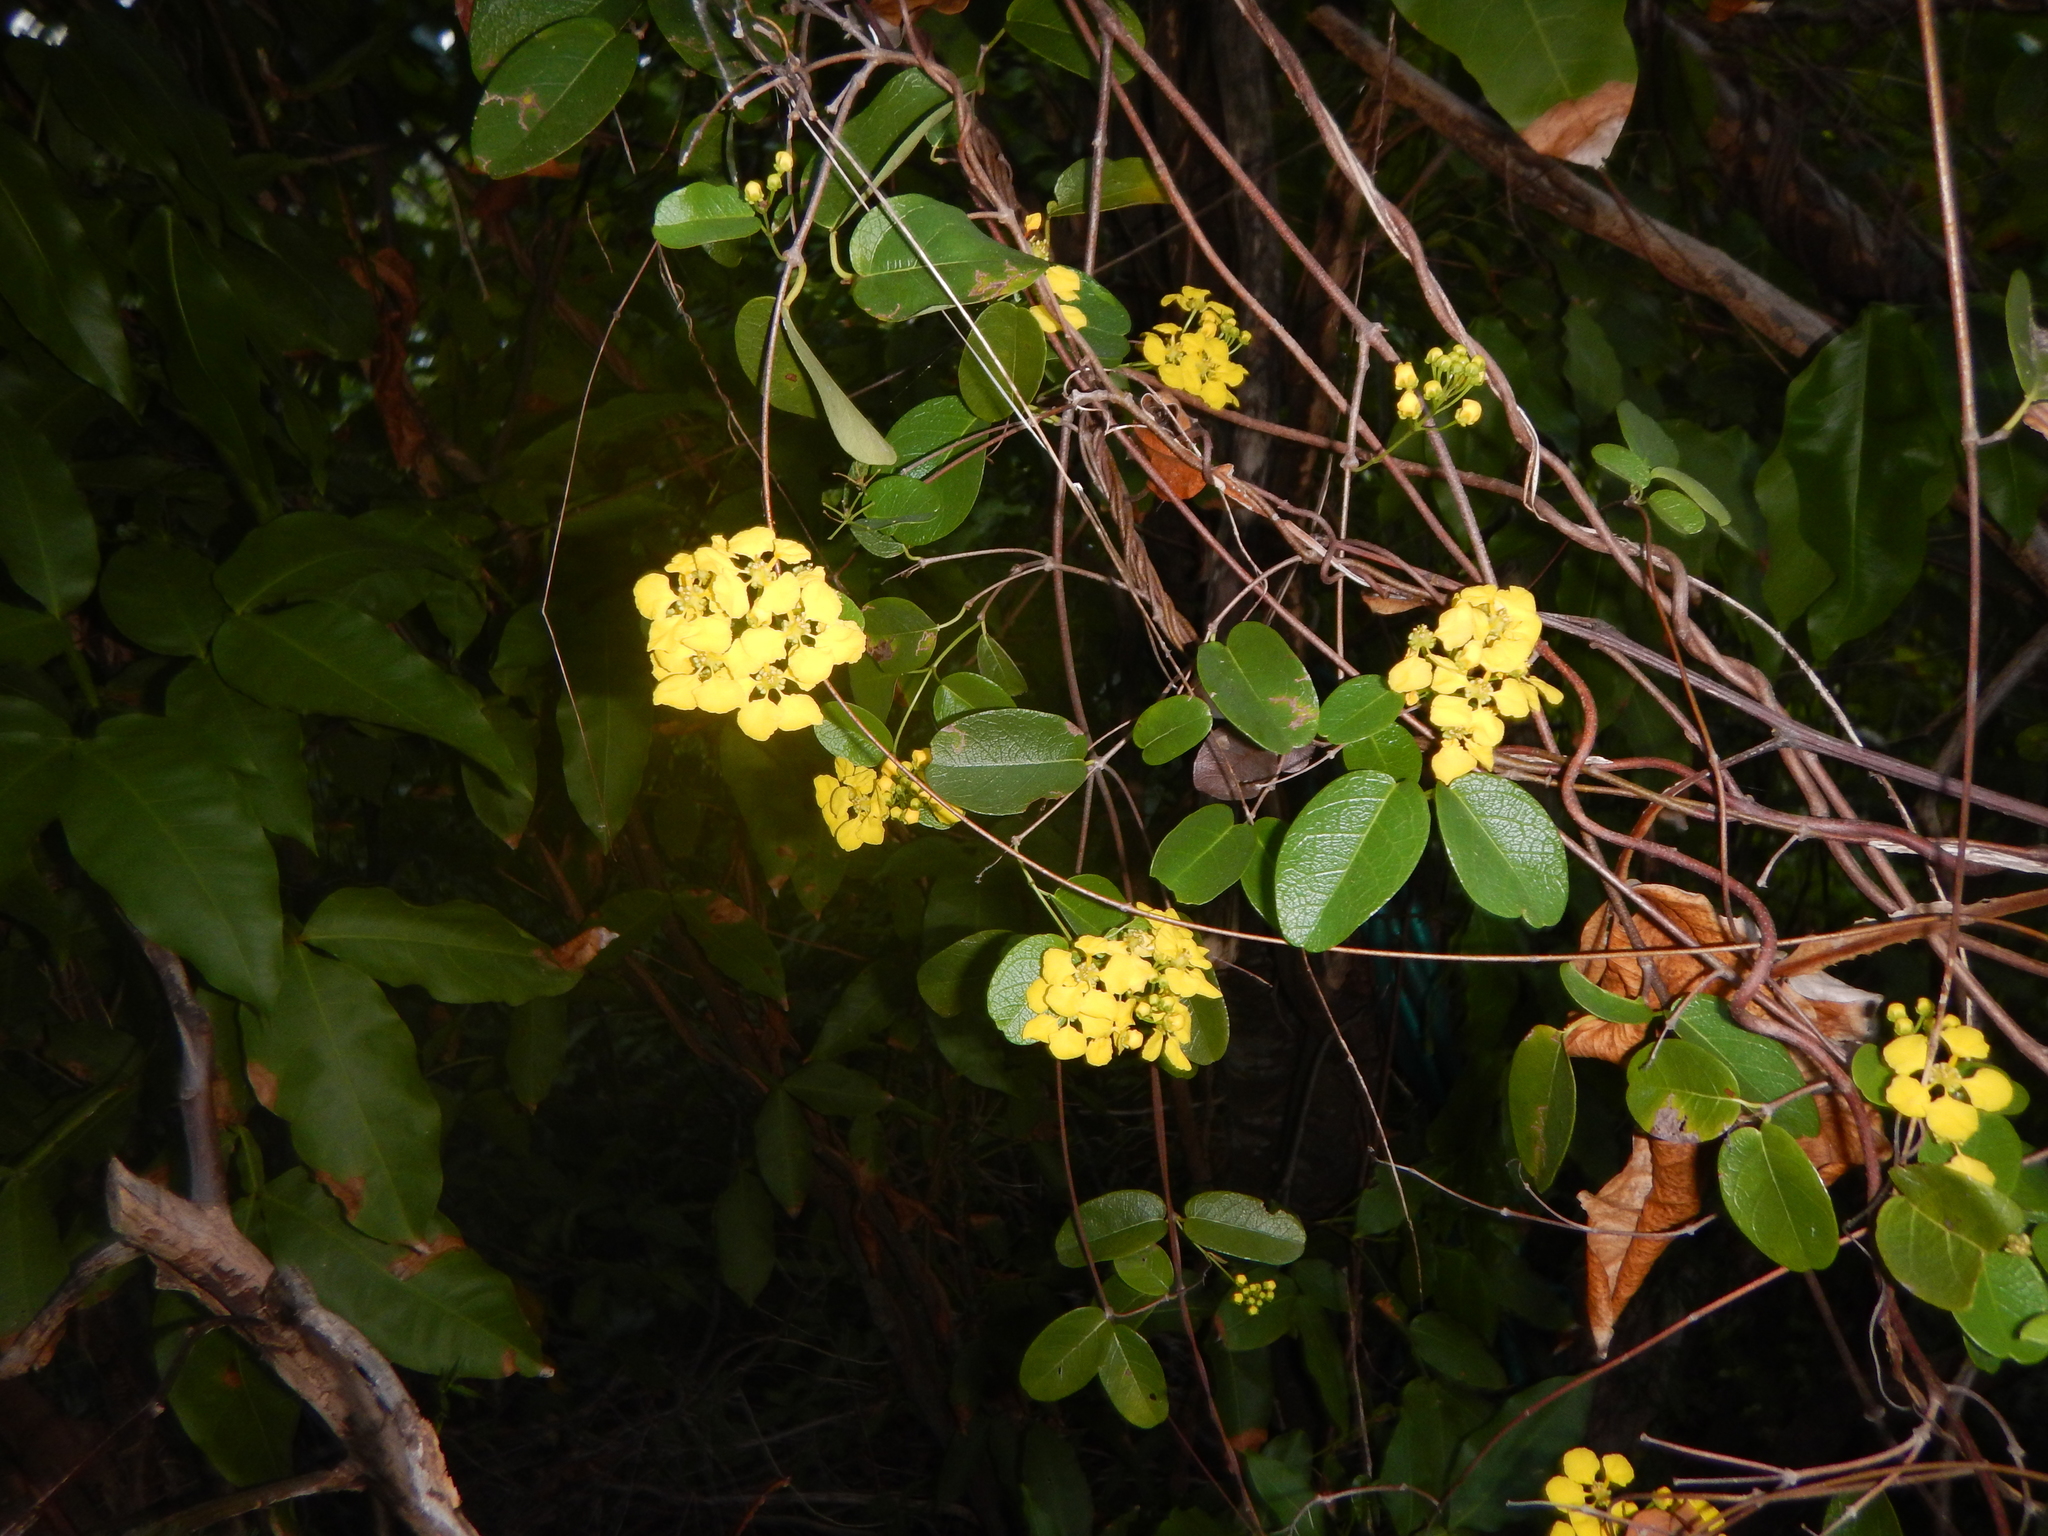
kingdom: Plantae
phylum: Tracheophyta
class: Magnoliopsida
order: Malpighiales
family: Malpighiaceae
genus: Stigmaphyllon
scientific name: Stigmaphyllon emarginatum
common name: Monarch amazonvine
